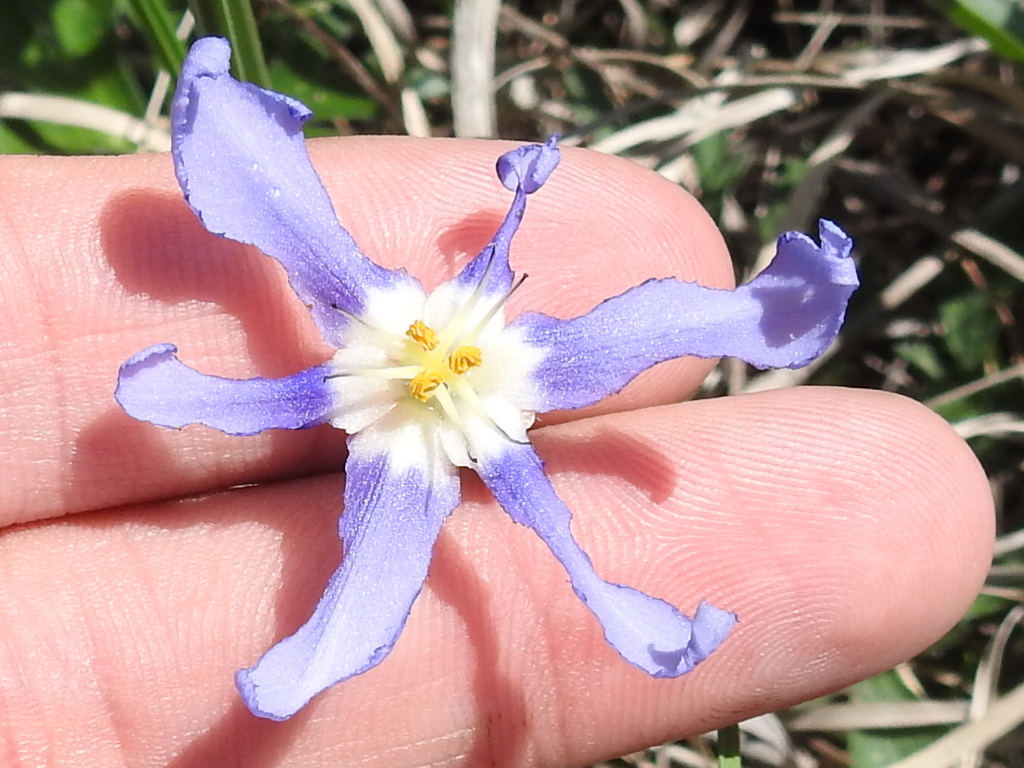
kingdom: Plantae
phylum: Tracheophyta
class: Liliopsida
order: Asparagales
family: Iridaceae
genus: Nemastylis
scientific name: Nemastylis geminiflora
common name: Prairie celestial
